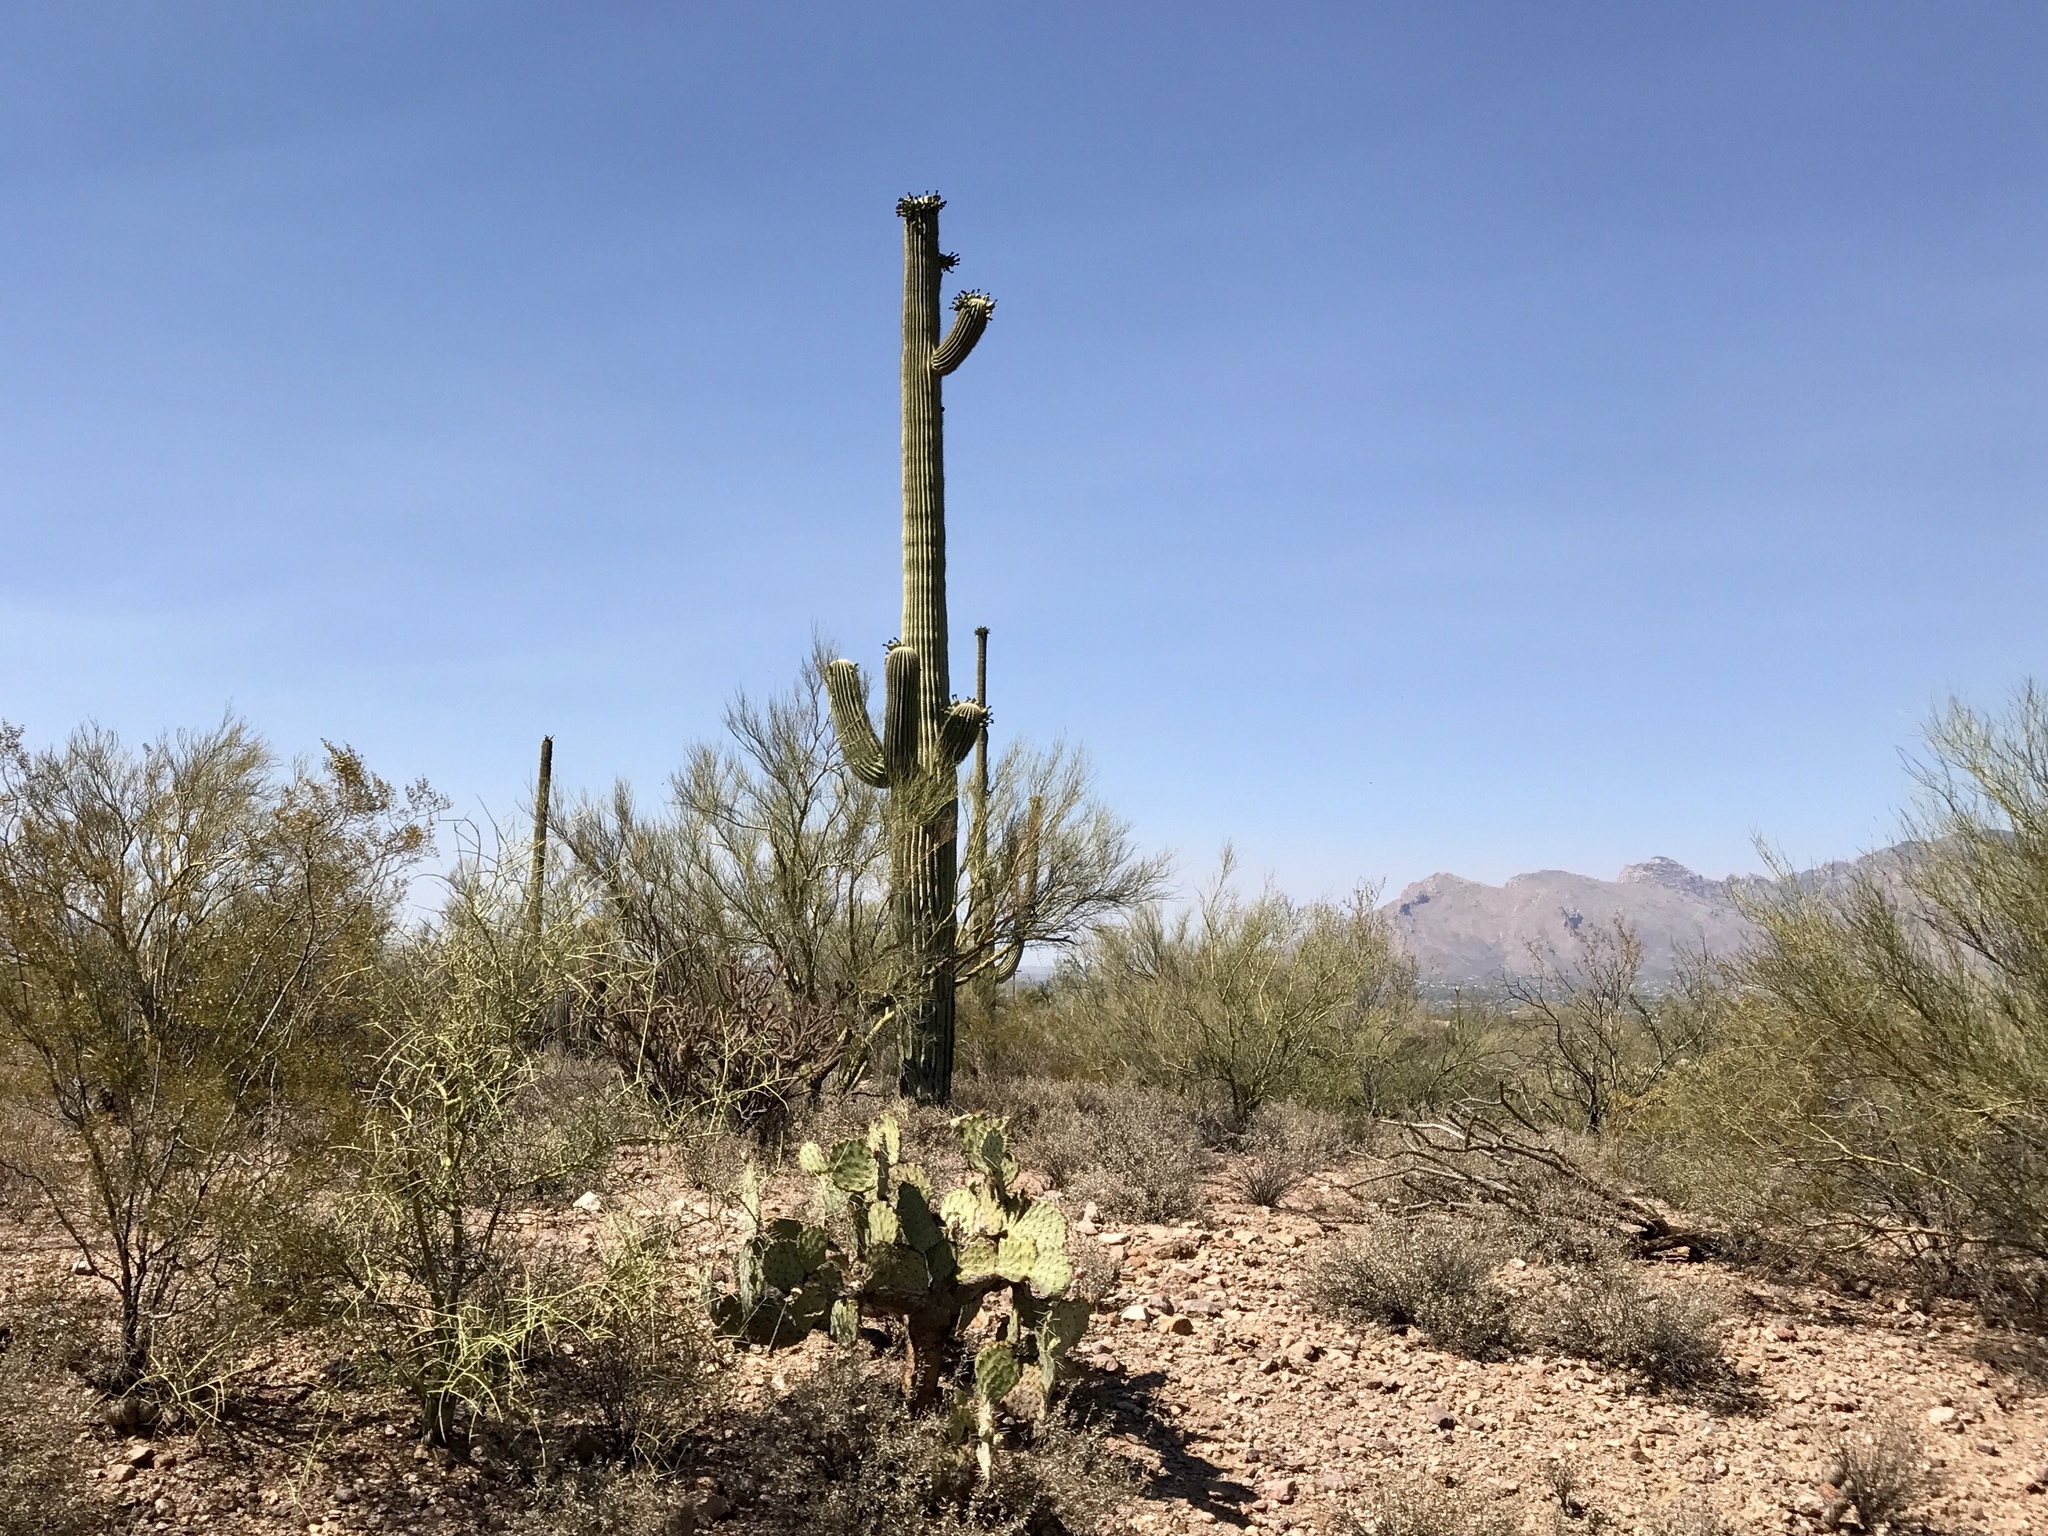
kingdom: Plantae
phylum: Tracheophyta
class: Magnoliopsida
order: Caryophyllales
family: Cactaceae
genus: Carnegiea
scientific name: Carnegiea gigantea
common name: Saguaro
